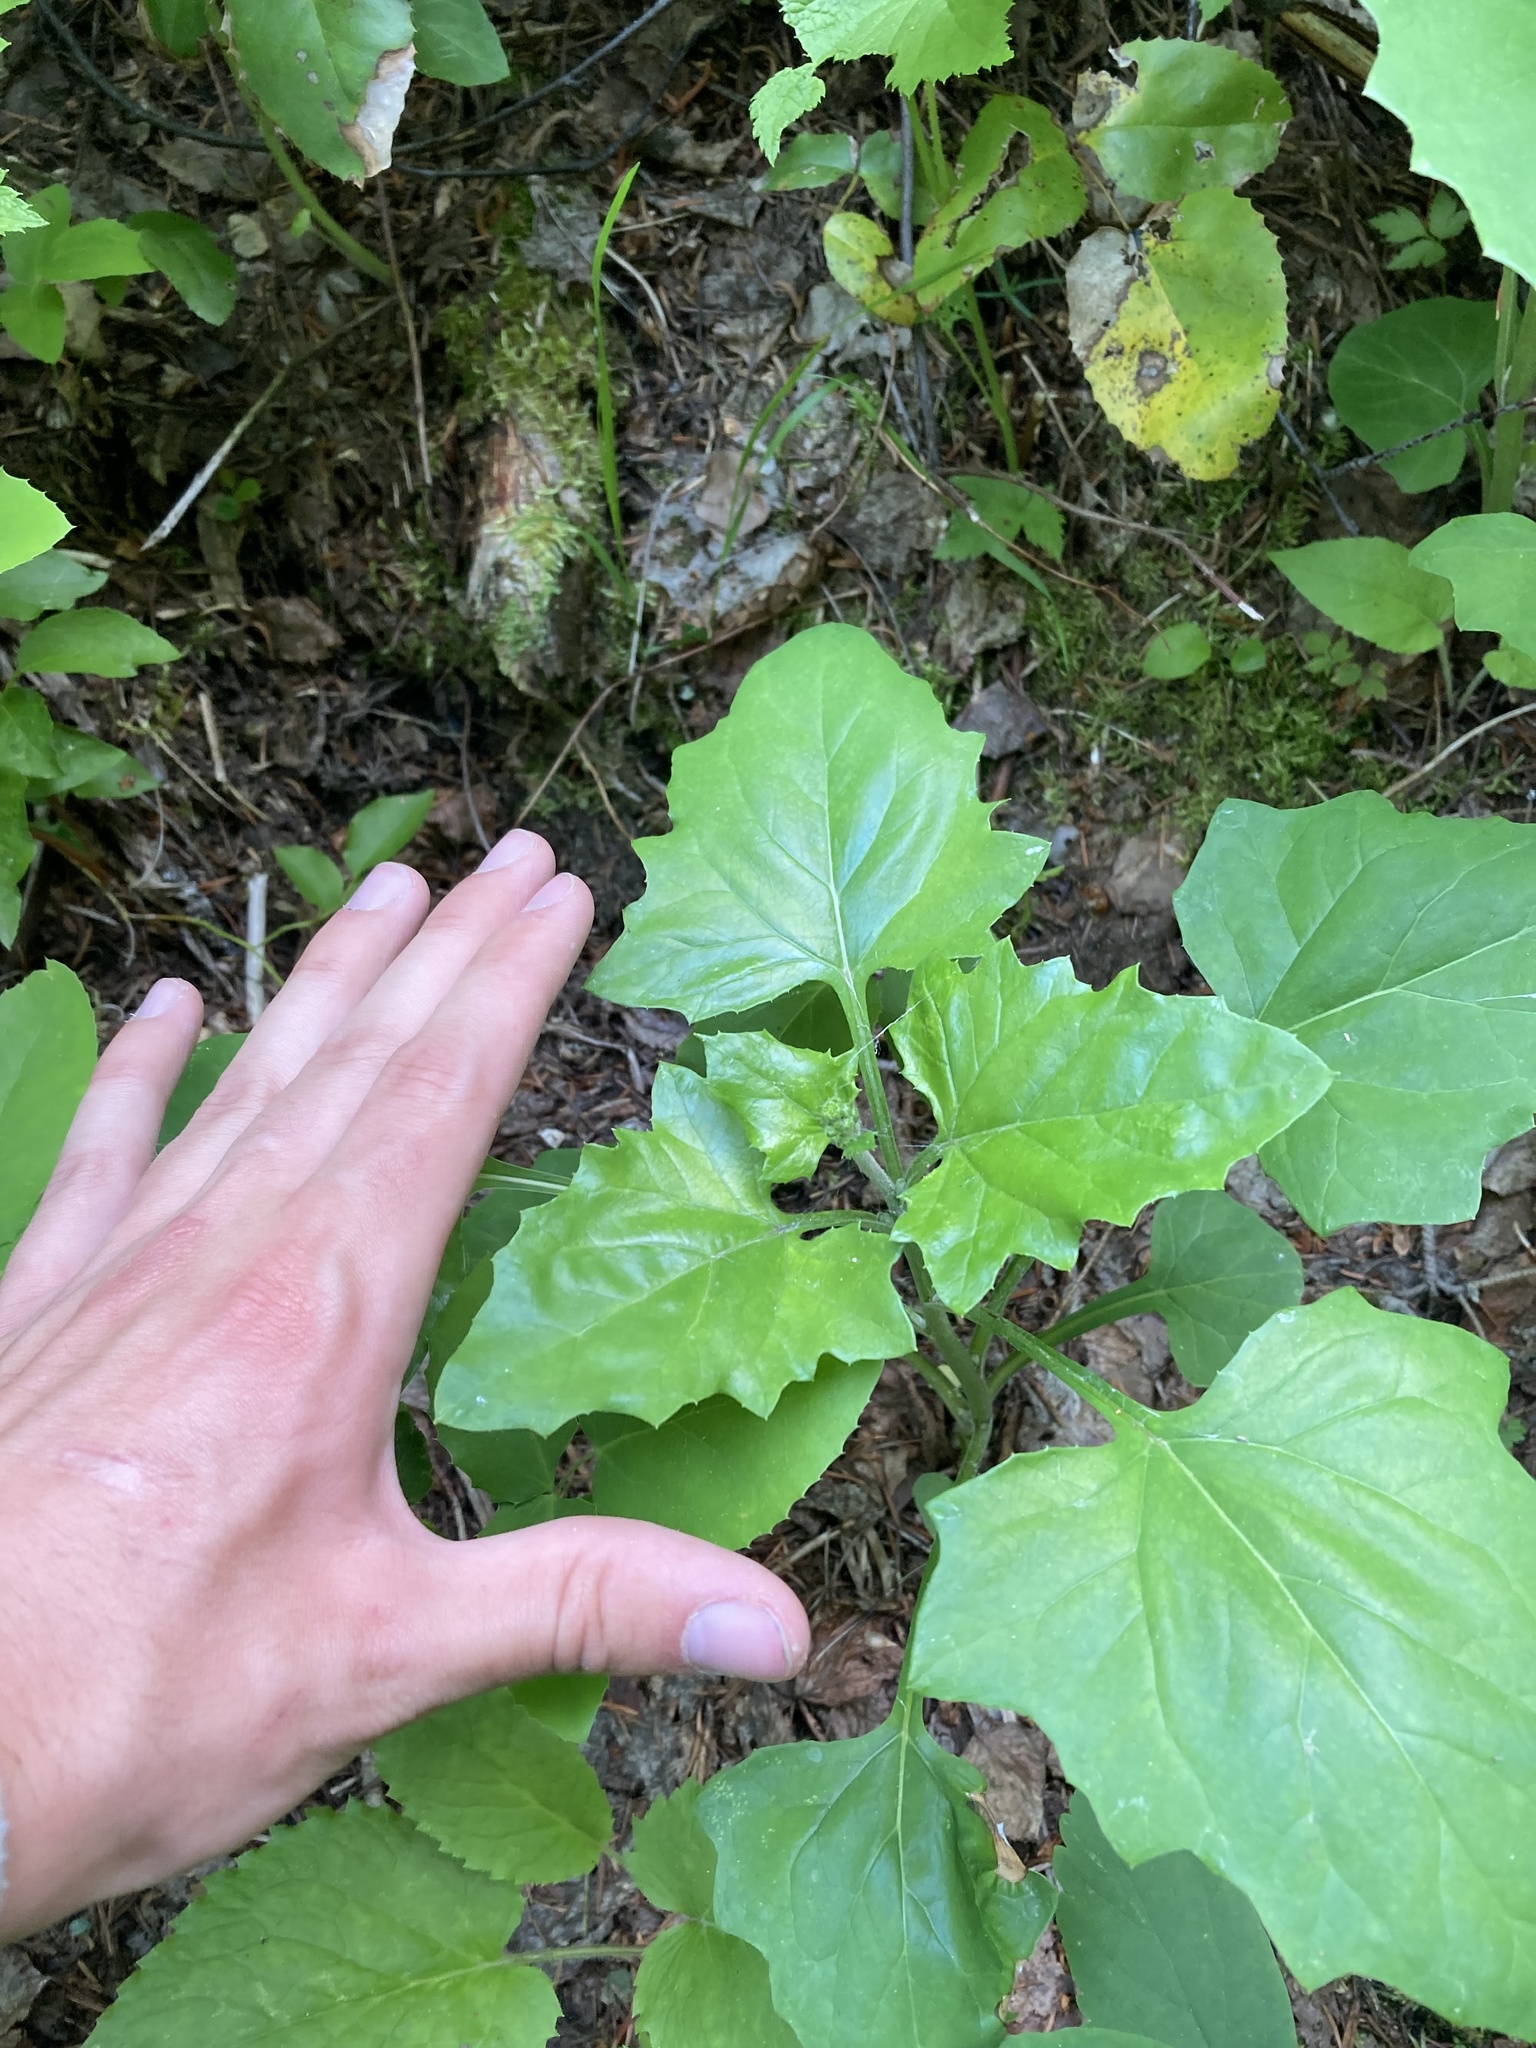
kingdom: Plantae
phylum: Tracheophyta
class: Magnoliopsida
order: Asterales
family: Asteraceae
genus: Adenocaulon
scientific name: Adenocaulon bicolor
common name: Trailplant
